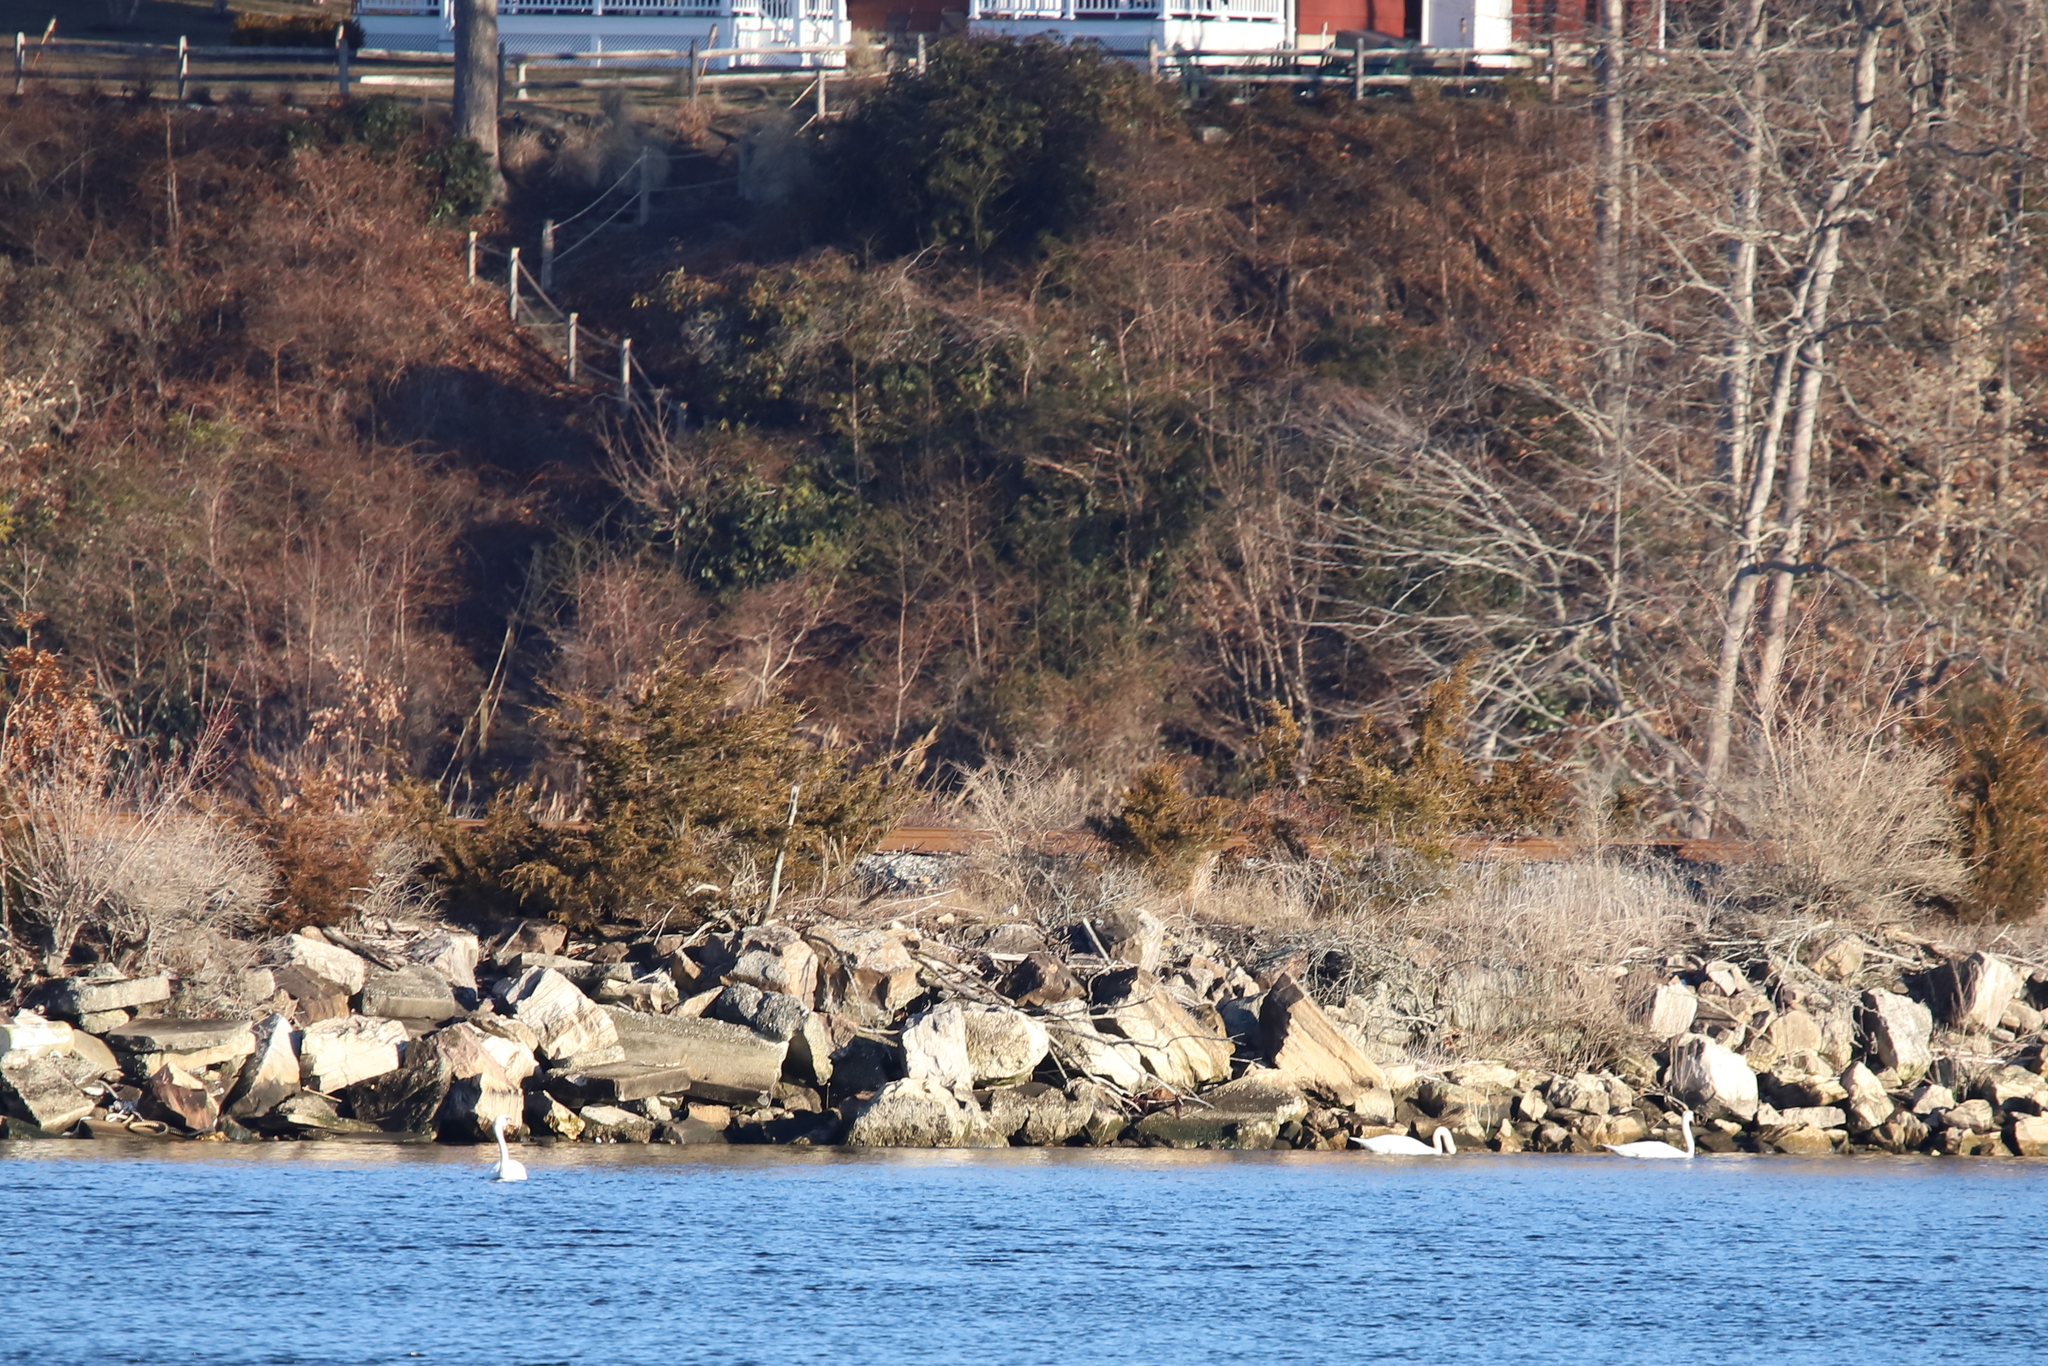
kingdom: Animalia
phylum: Chordata
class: Aves
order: Anseriformes
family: Anatidae
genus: Cygnus
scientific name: Cygnus olor
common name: Mute swan
